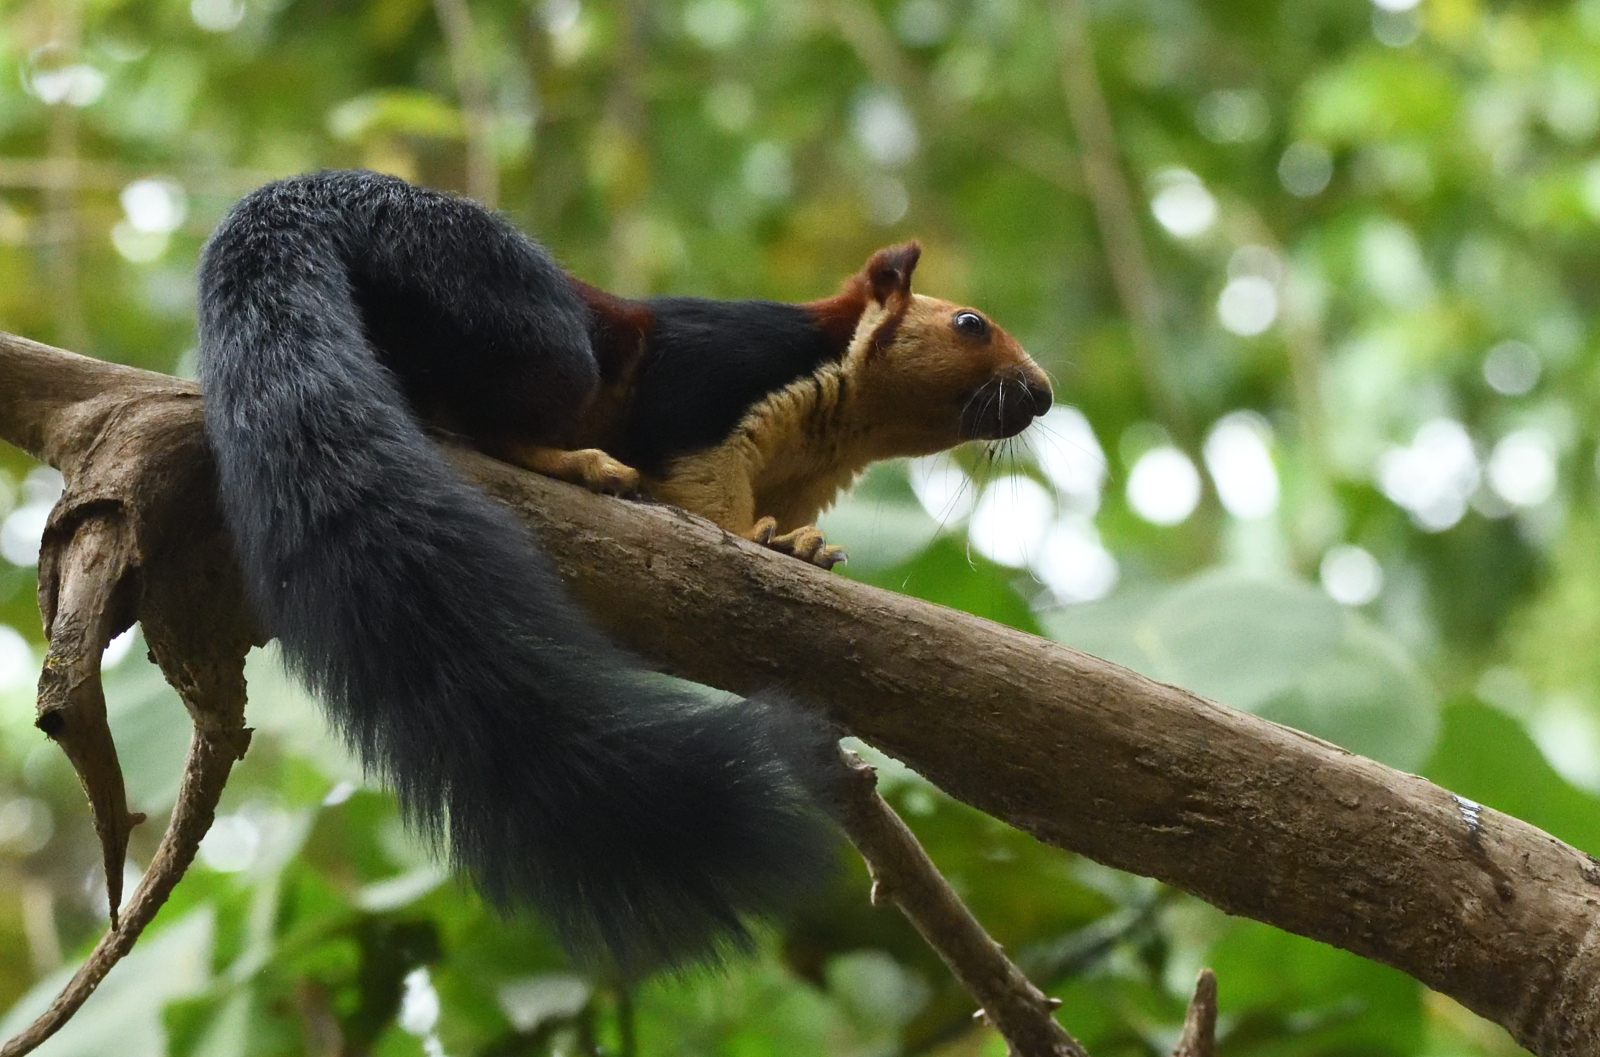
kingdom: Animalia
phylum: Chordata
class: Mammalia
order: Rodentia
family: Sciuridae
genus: Ratufa
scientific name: Ratufa indica
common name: Indian giant squirrel
